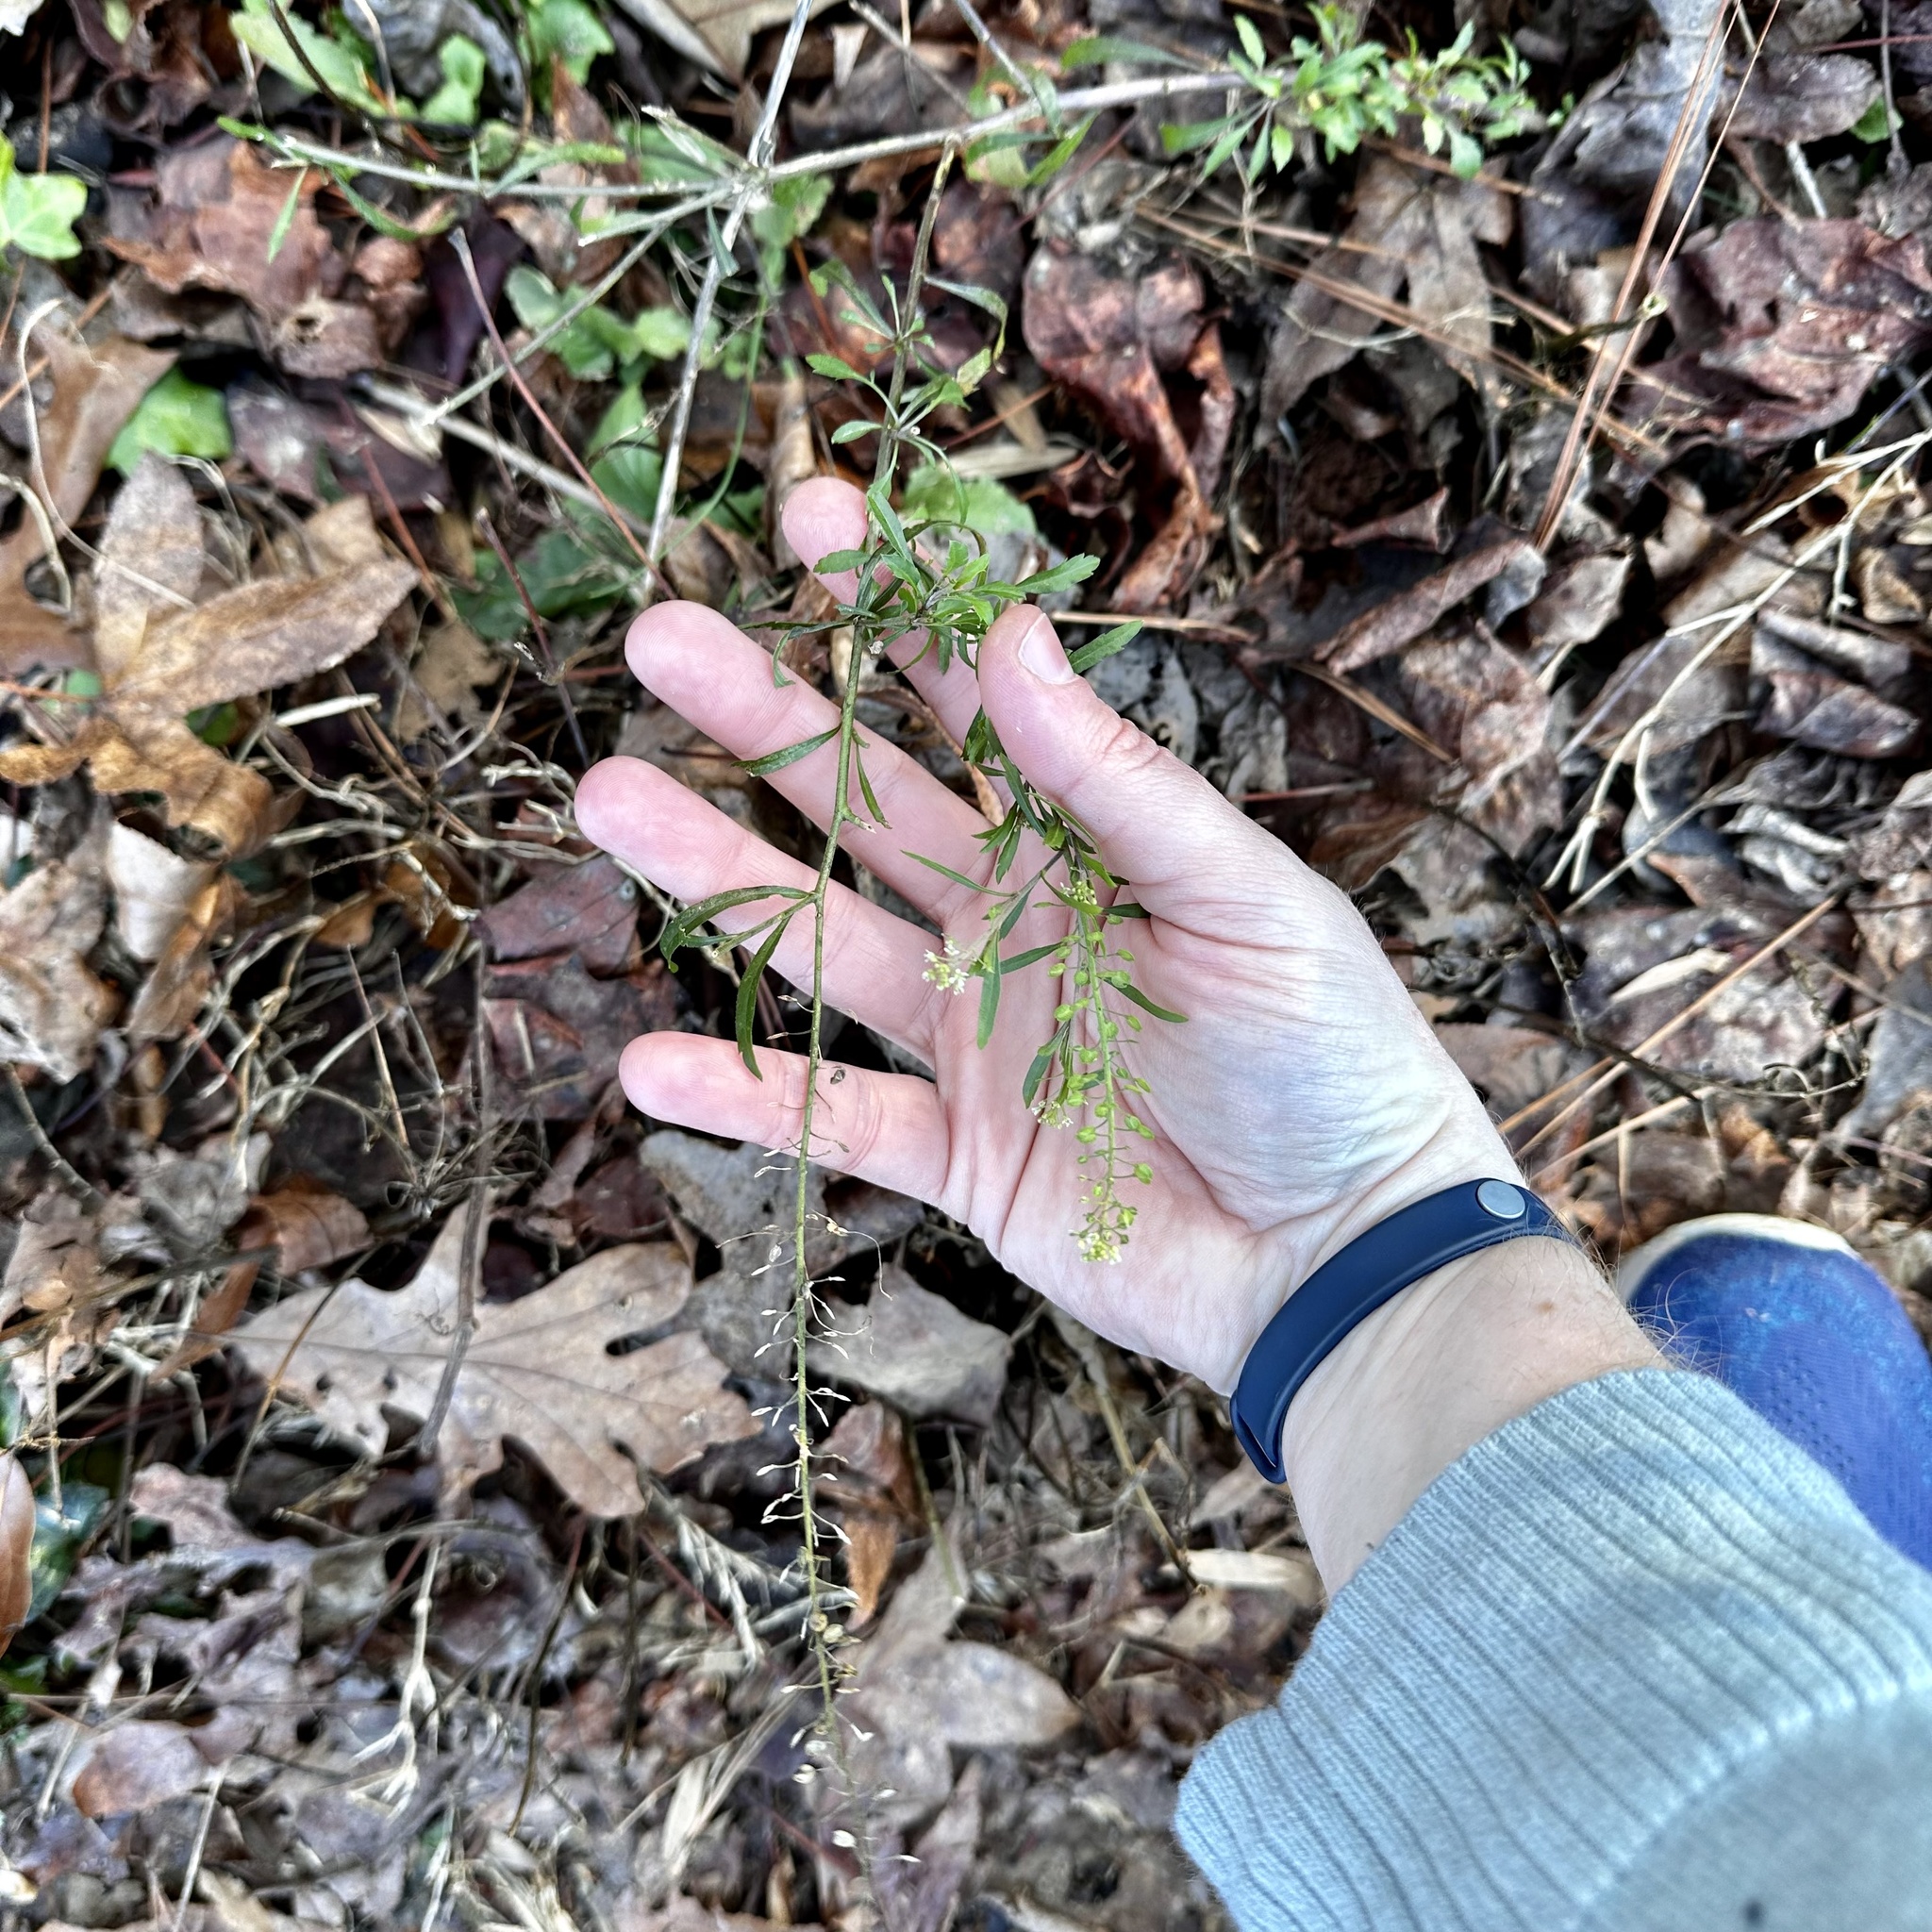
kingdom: Plantae
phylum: Tracheophyta
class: Magnoliopsida
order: Brassicales
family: Brassicaceae
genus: Lepidium
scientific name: Lepidium virginicum
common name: Least pepperwort
